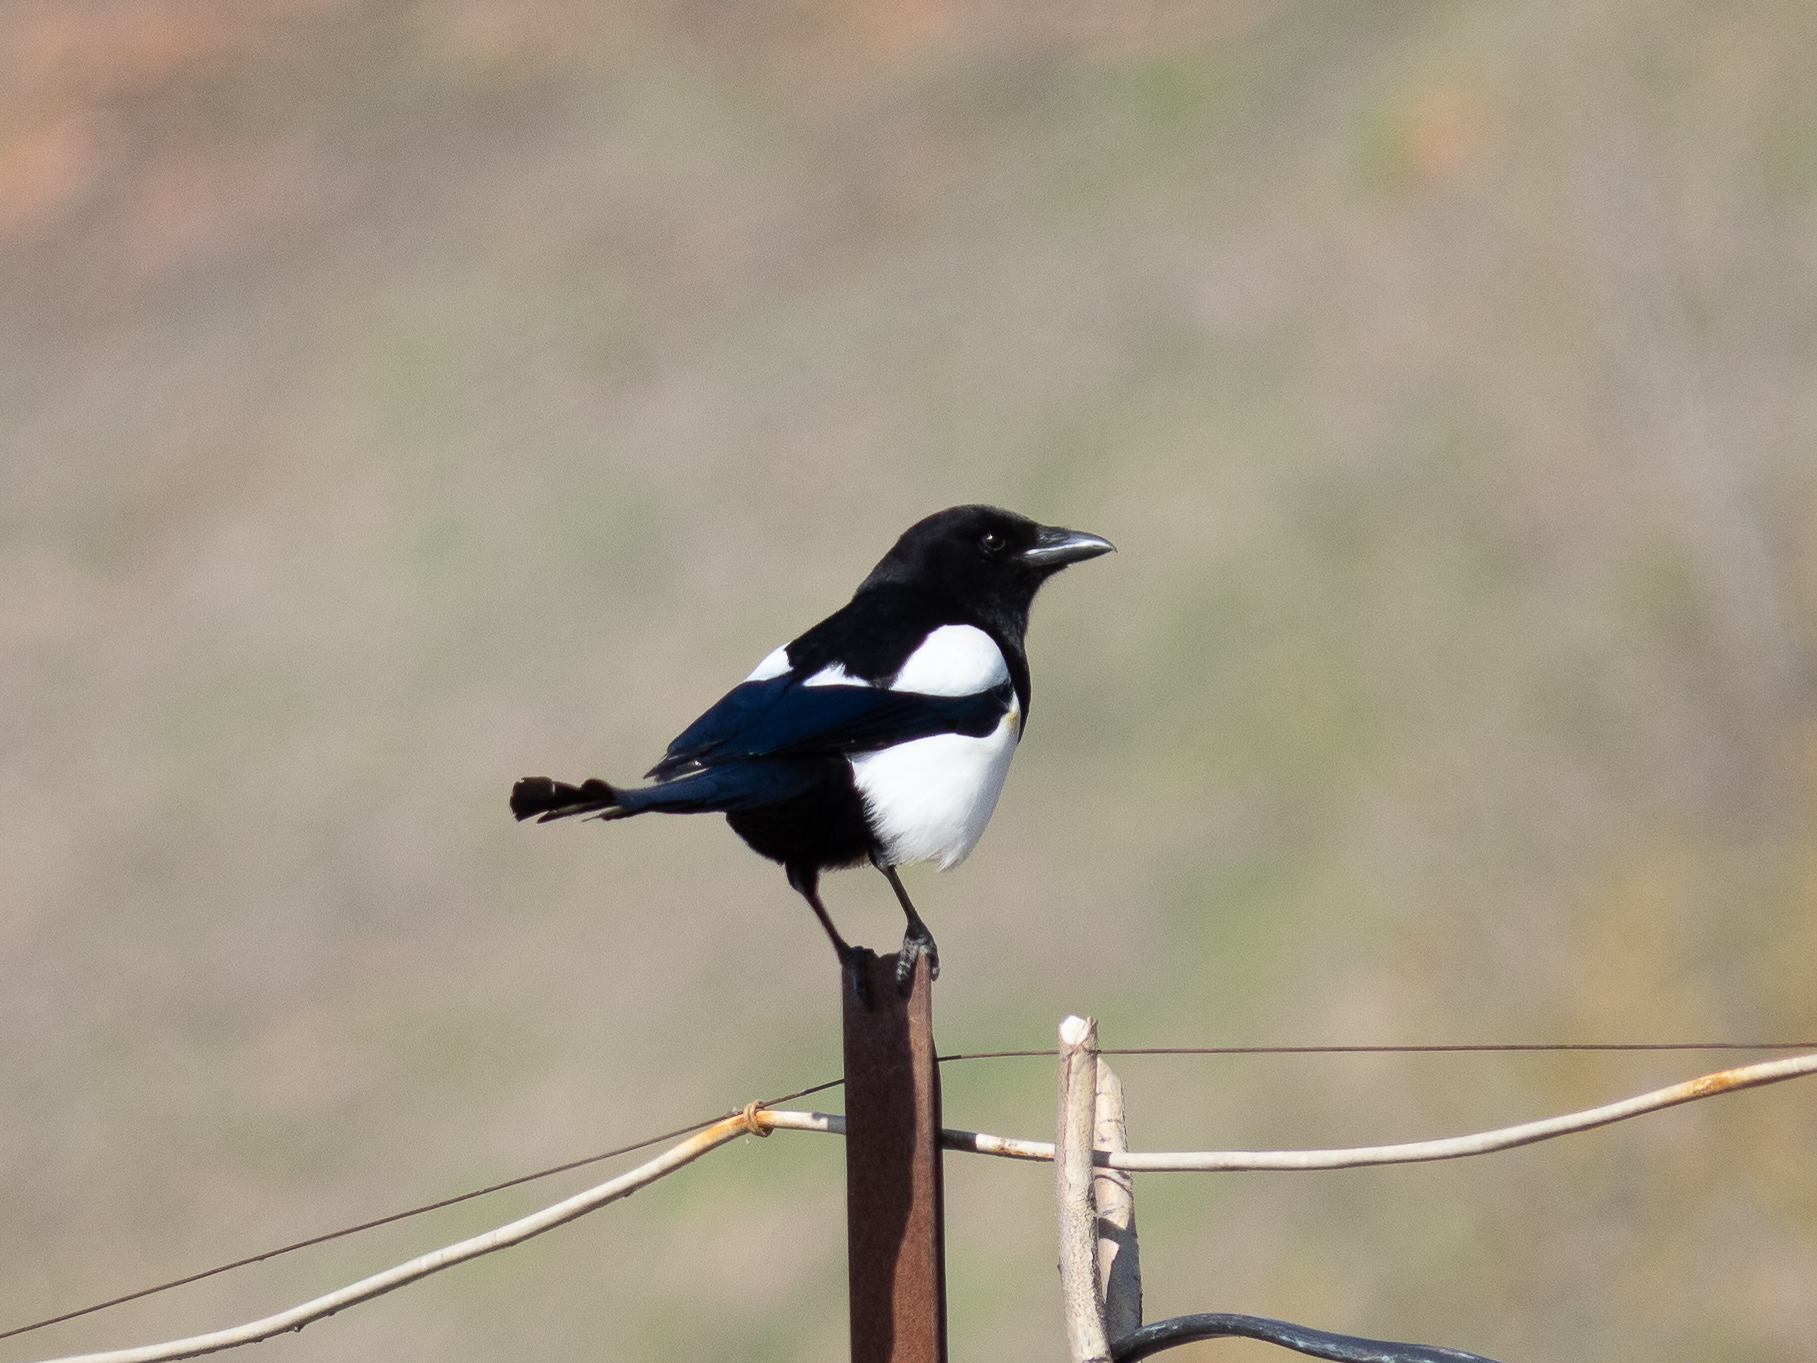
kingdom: Animalia
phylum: Chordata
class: Aves
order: Passeriformes
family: Corvidae
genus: Pica
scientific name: Pica pica
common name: Eurasian magpie
